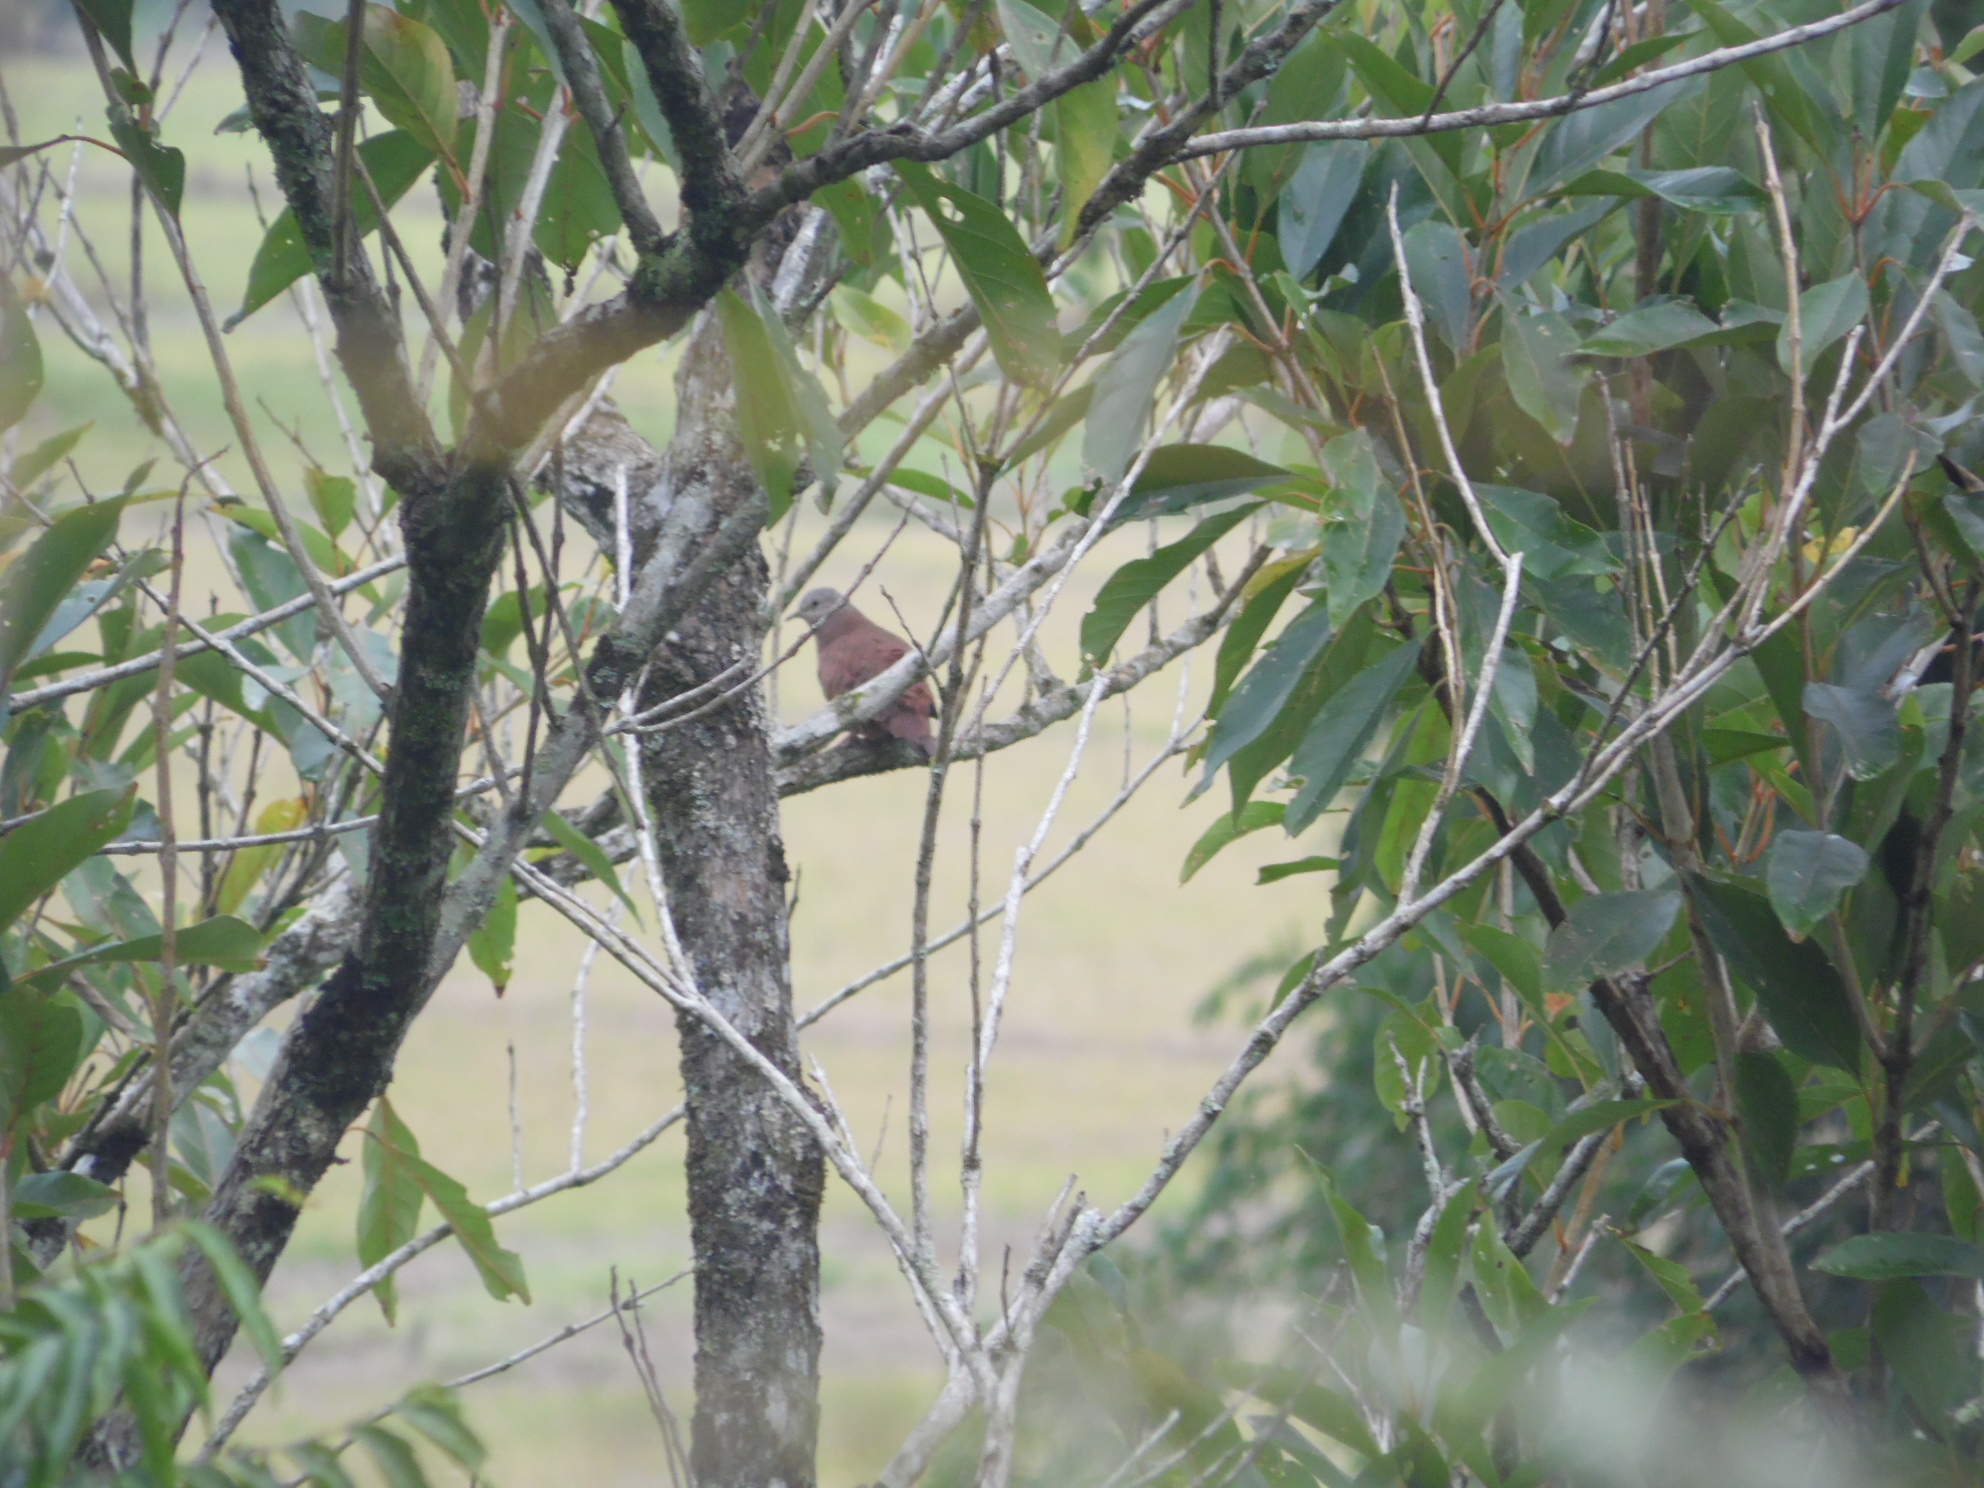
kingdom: Animalia
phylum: Chordata
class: Aves
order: Columbiformes
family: Columbidae
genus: Columbina
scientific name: Columbina talpacoti
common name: Ruddy ground dove
